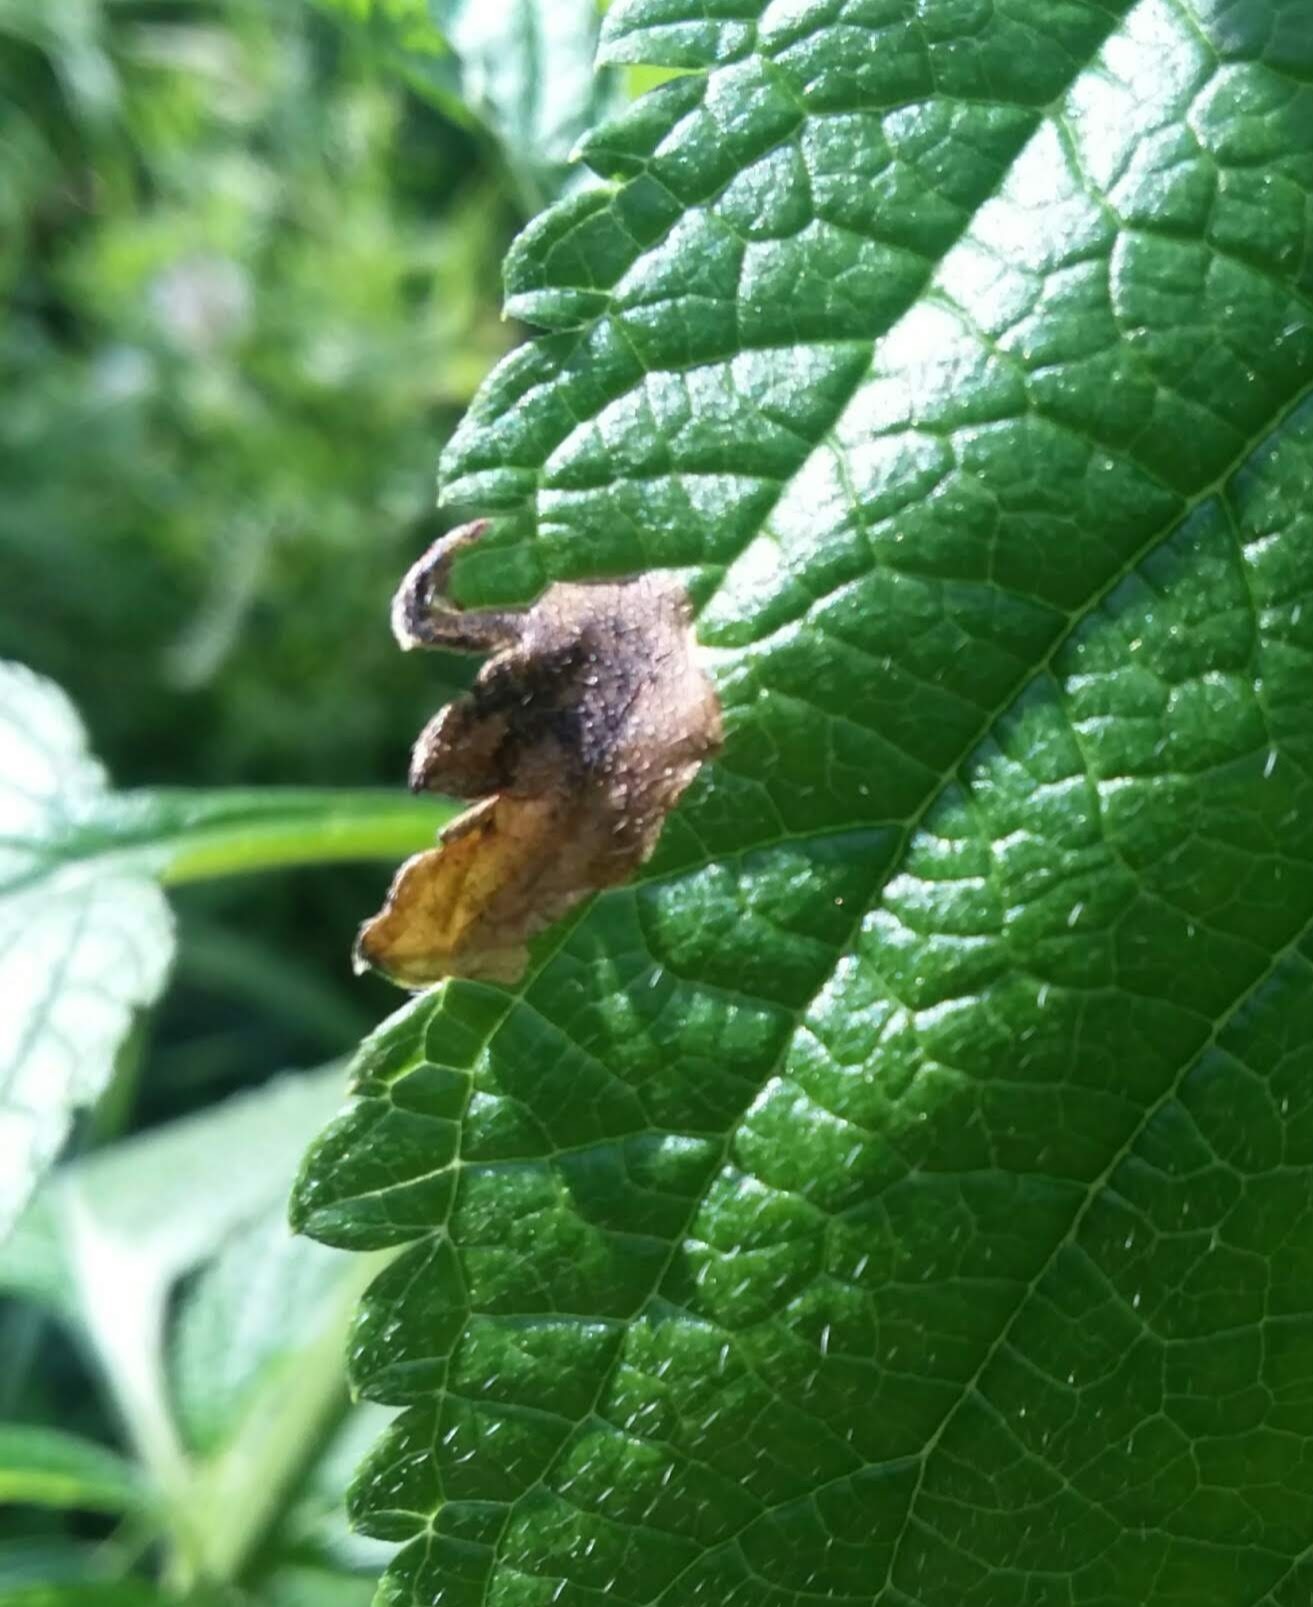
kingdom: Animalia
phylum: Arthropoda
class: Insecta
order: Diptera
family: Agromyzidae
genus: Calycomyza
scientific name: Calycomyza verbenae
